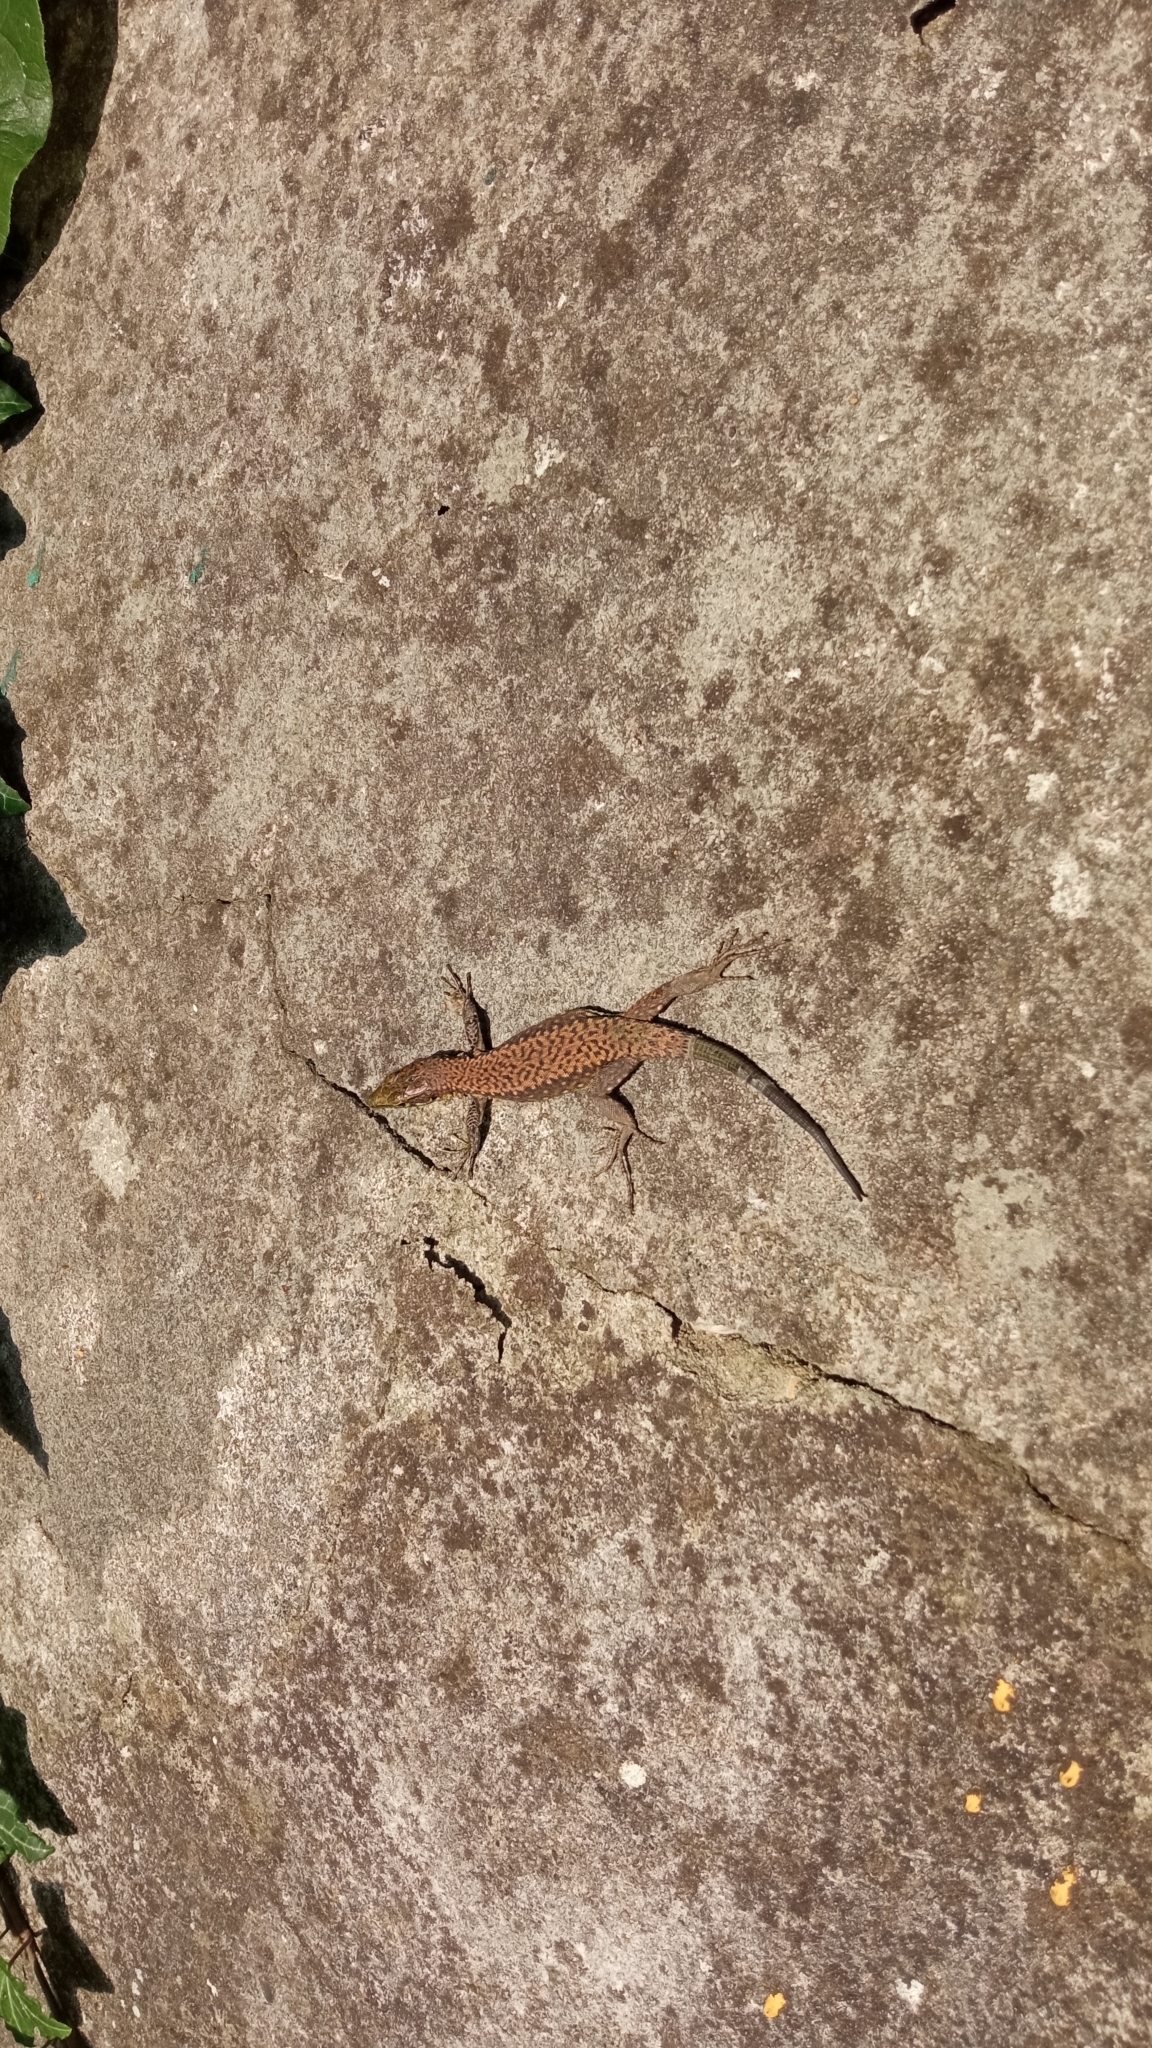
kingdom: Animalia
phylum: Chordata
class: Squamata
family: Lacertidae
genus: Darevskia
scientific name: Darevskia brauneri
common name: Brauner's rock lizard
